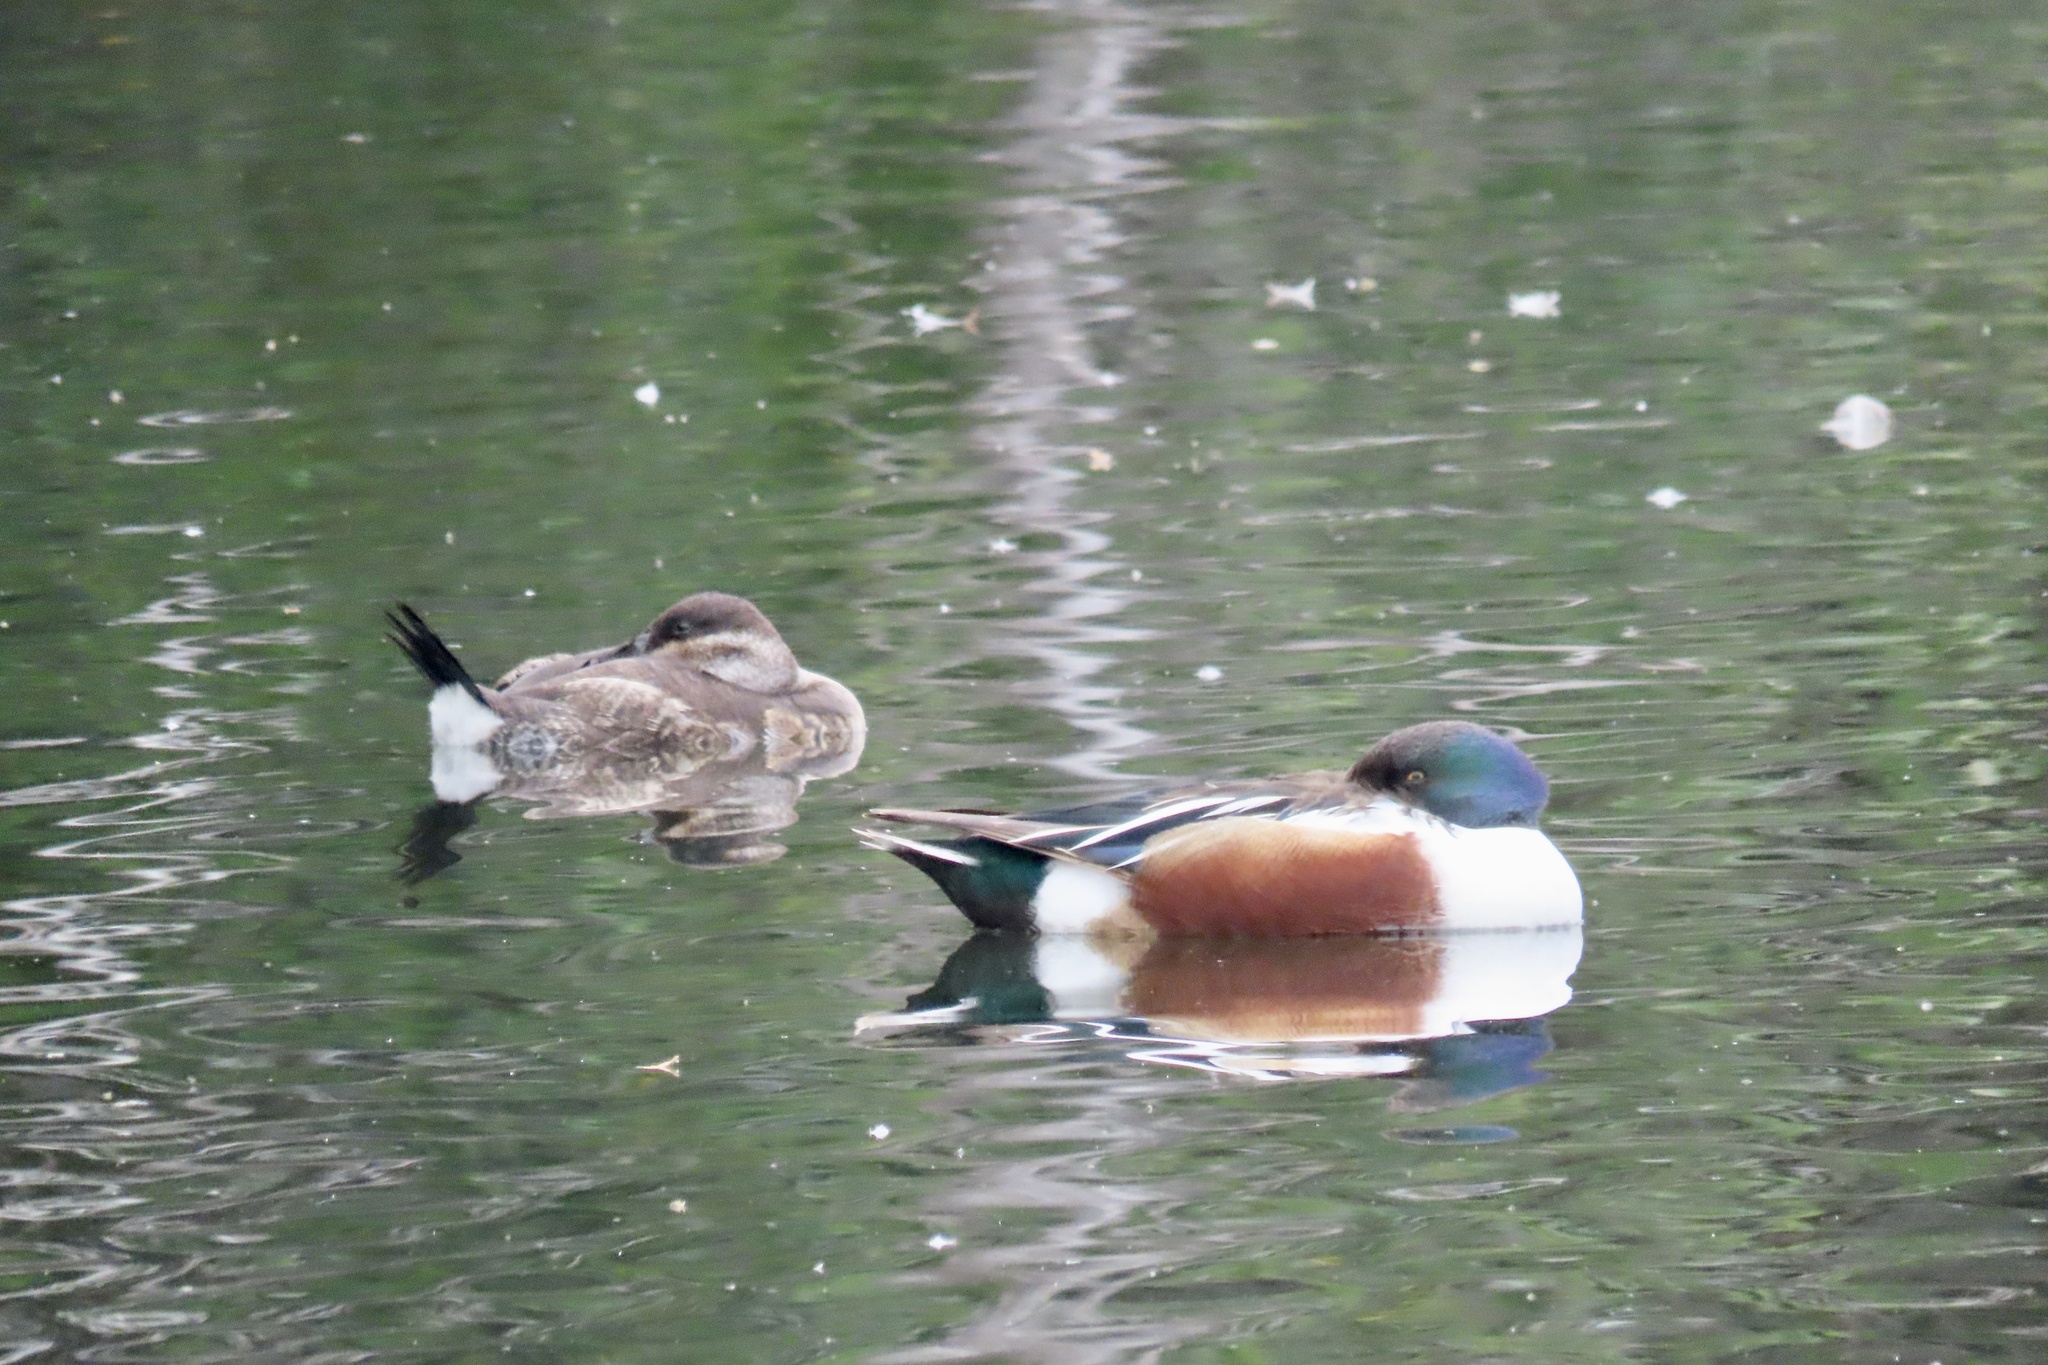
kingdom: Animalia
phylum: Chordata
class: Aves
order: Anseriformes
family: Anatidae
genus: Spatula
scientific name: Spatula clypeata
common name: Northern shoveler
